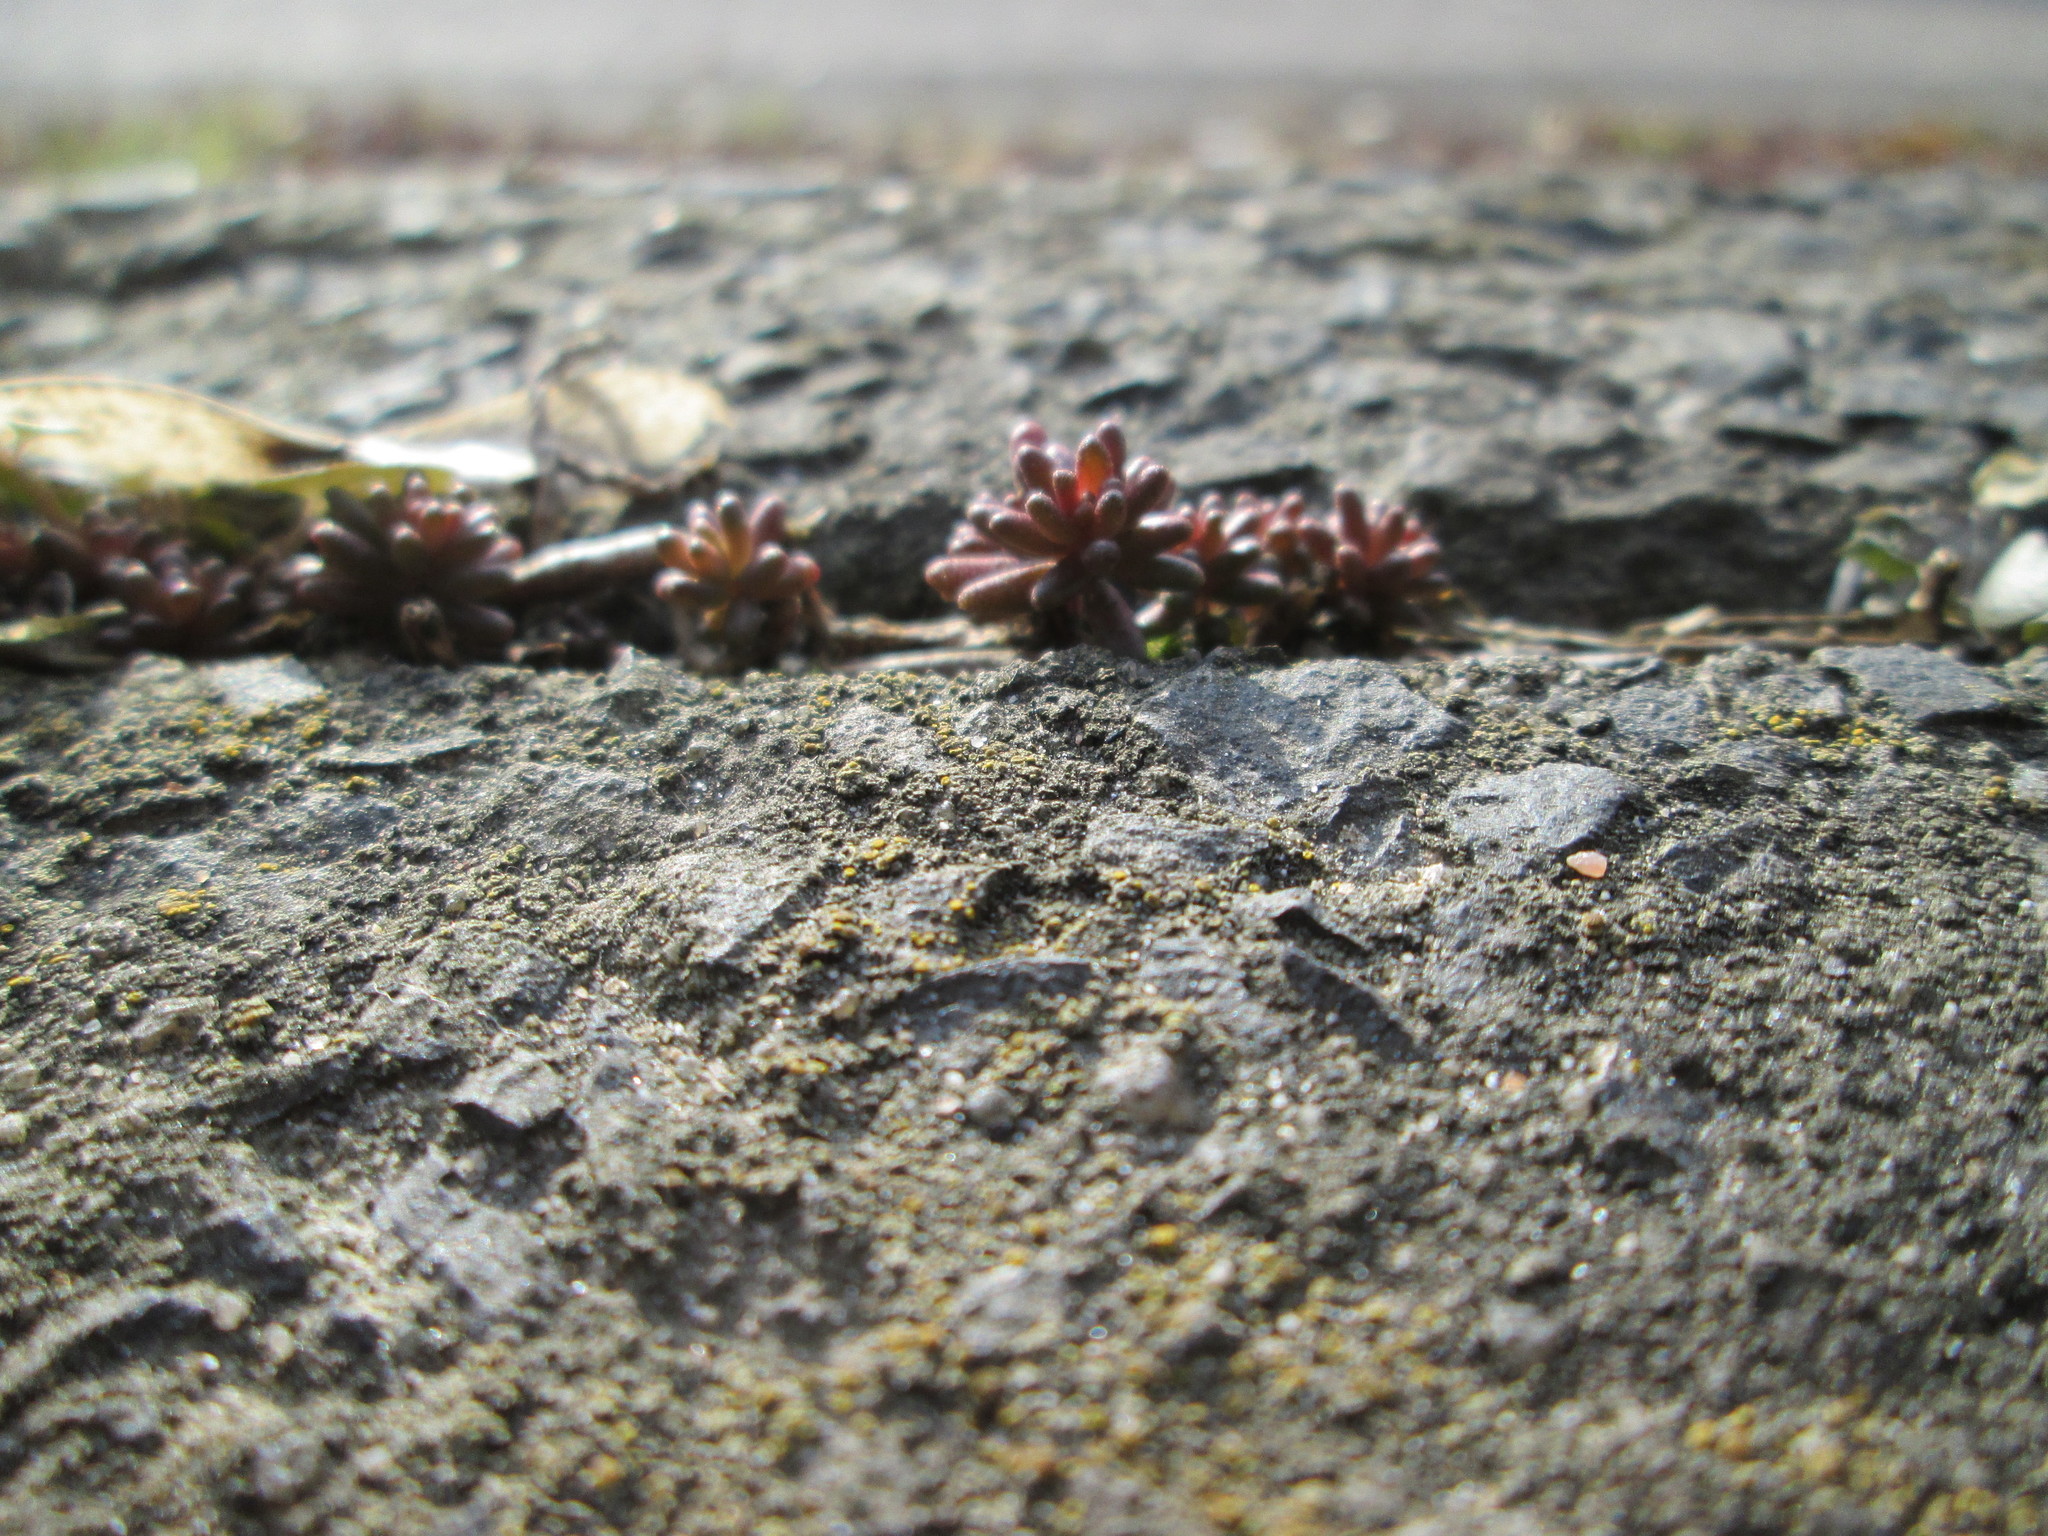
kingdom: Plantae
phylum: Tracheophyta
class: Magnoliopsida
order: Saxifragales
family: Crassulaceae
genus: Sedum
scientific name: Sedum album
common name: White stonecrop
